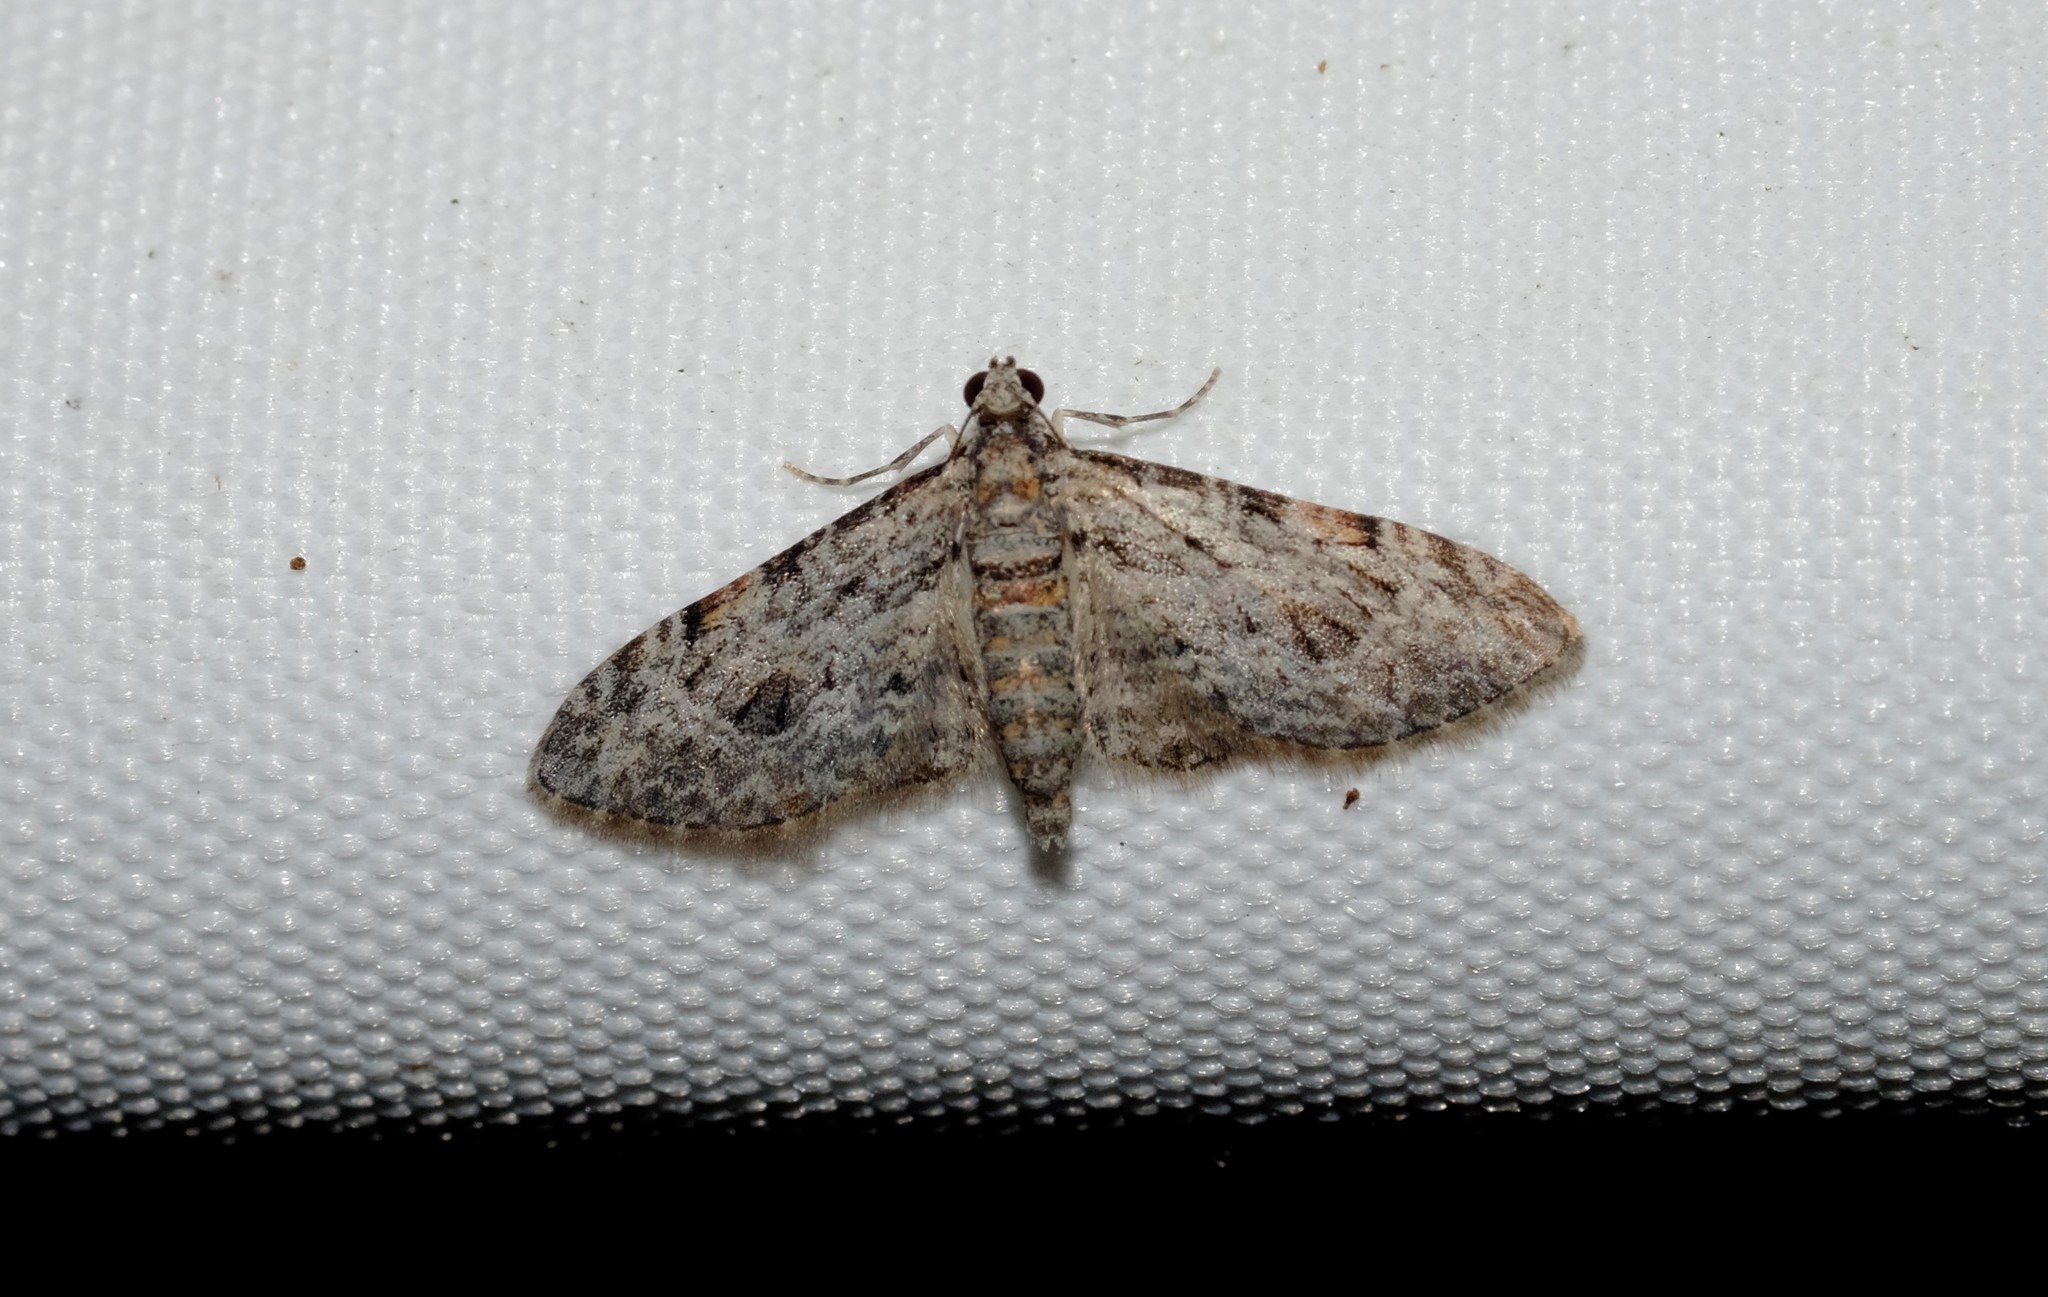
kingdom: Animalia
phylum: Arthropoda
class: Insecta
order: Lepidoptera
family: Geometridae
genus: Chloroclystis
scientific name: Chloroclystis insigillata
